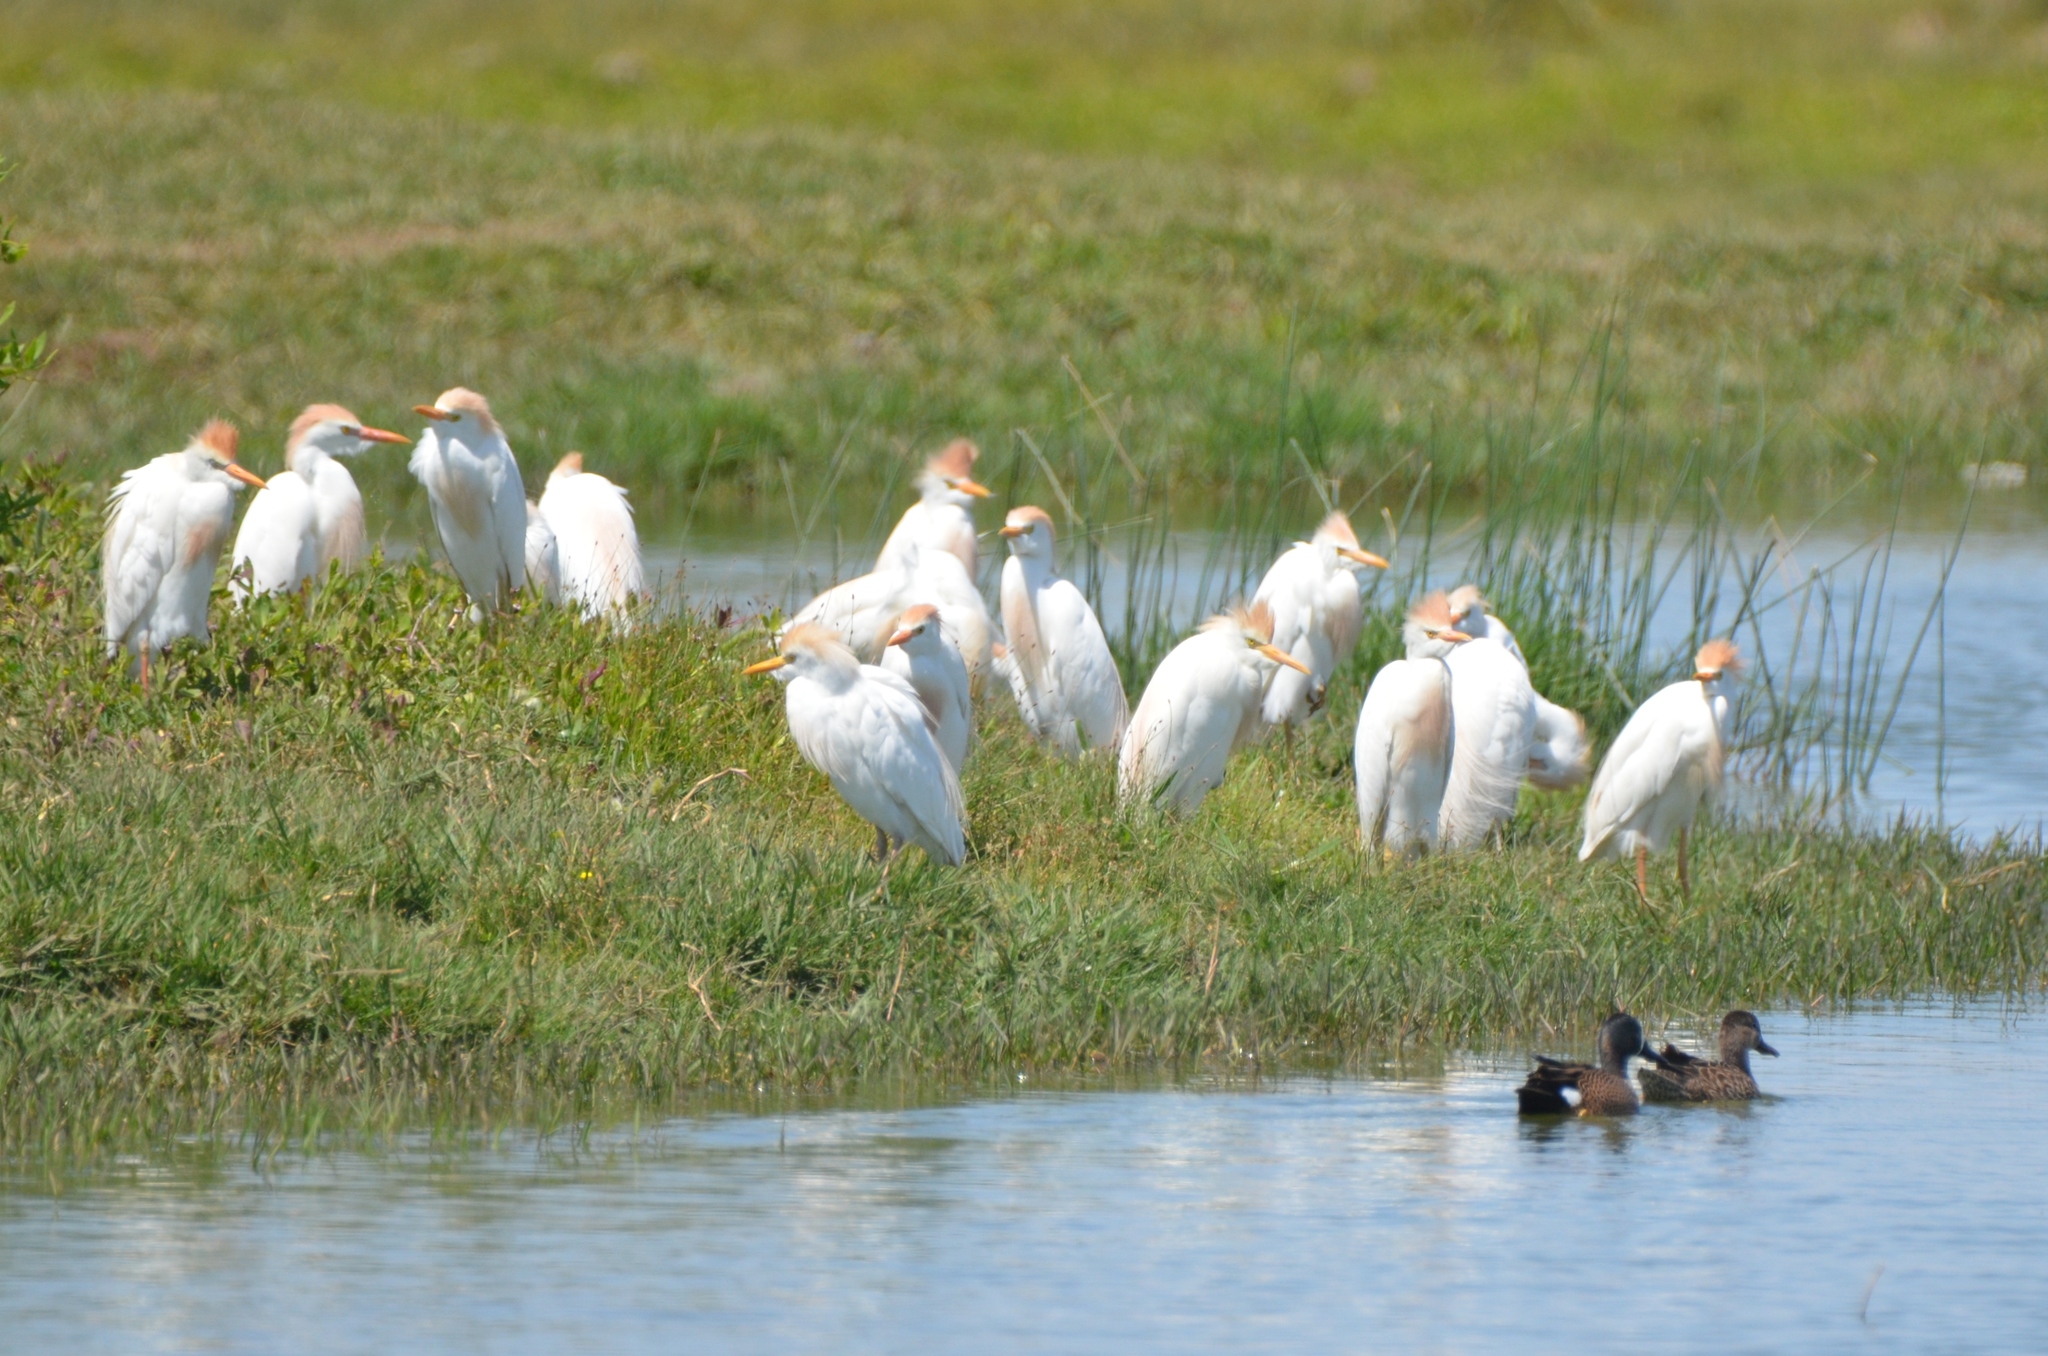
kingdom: Animalia
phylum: Chordata
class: Aves
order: Pelecaniformes
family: Ardeidae
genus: Bubulcus
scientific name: Bubulcus ibis
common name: Cattle egret
